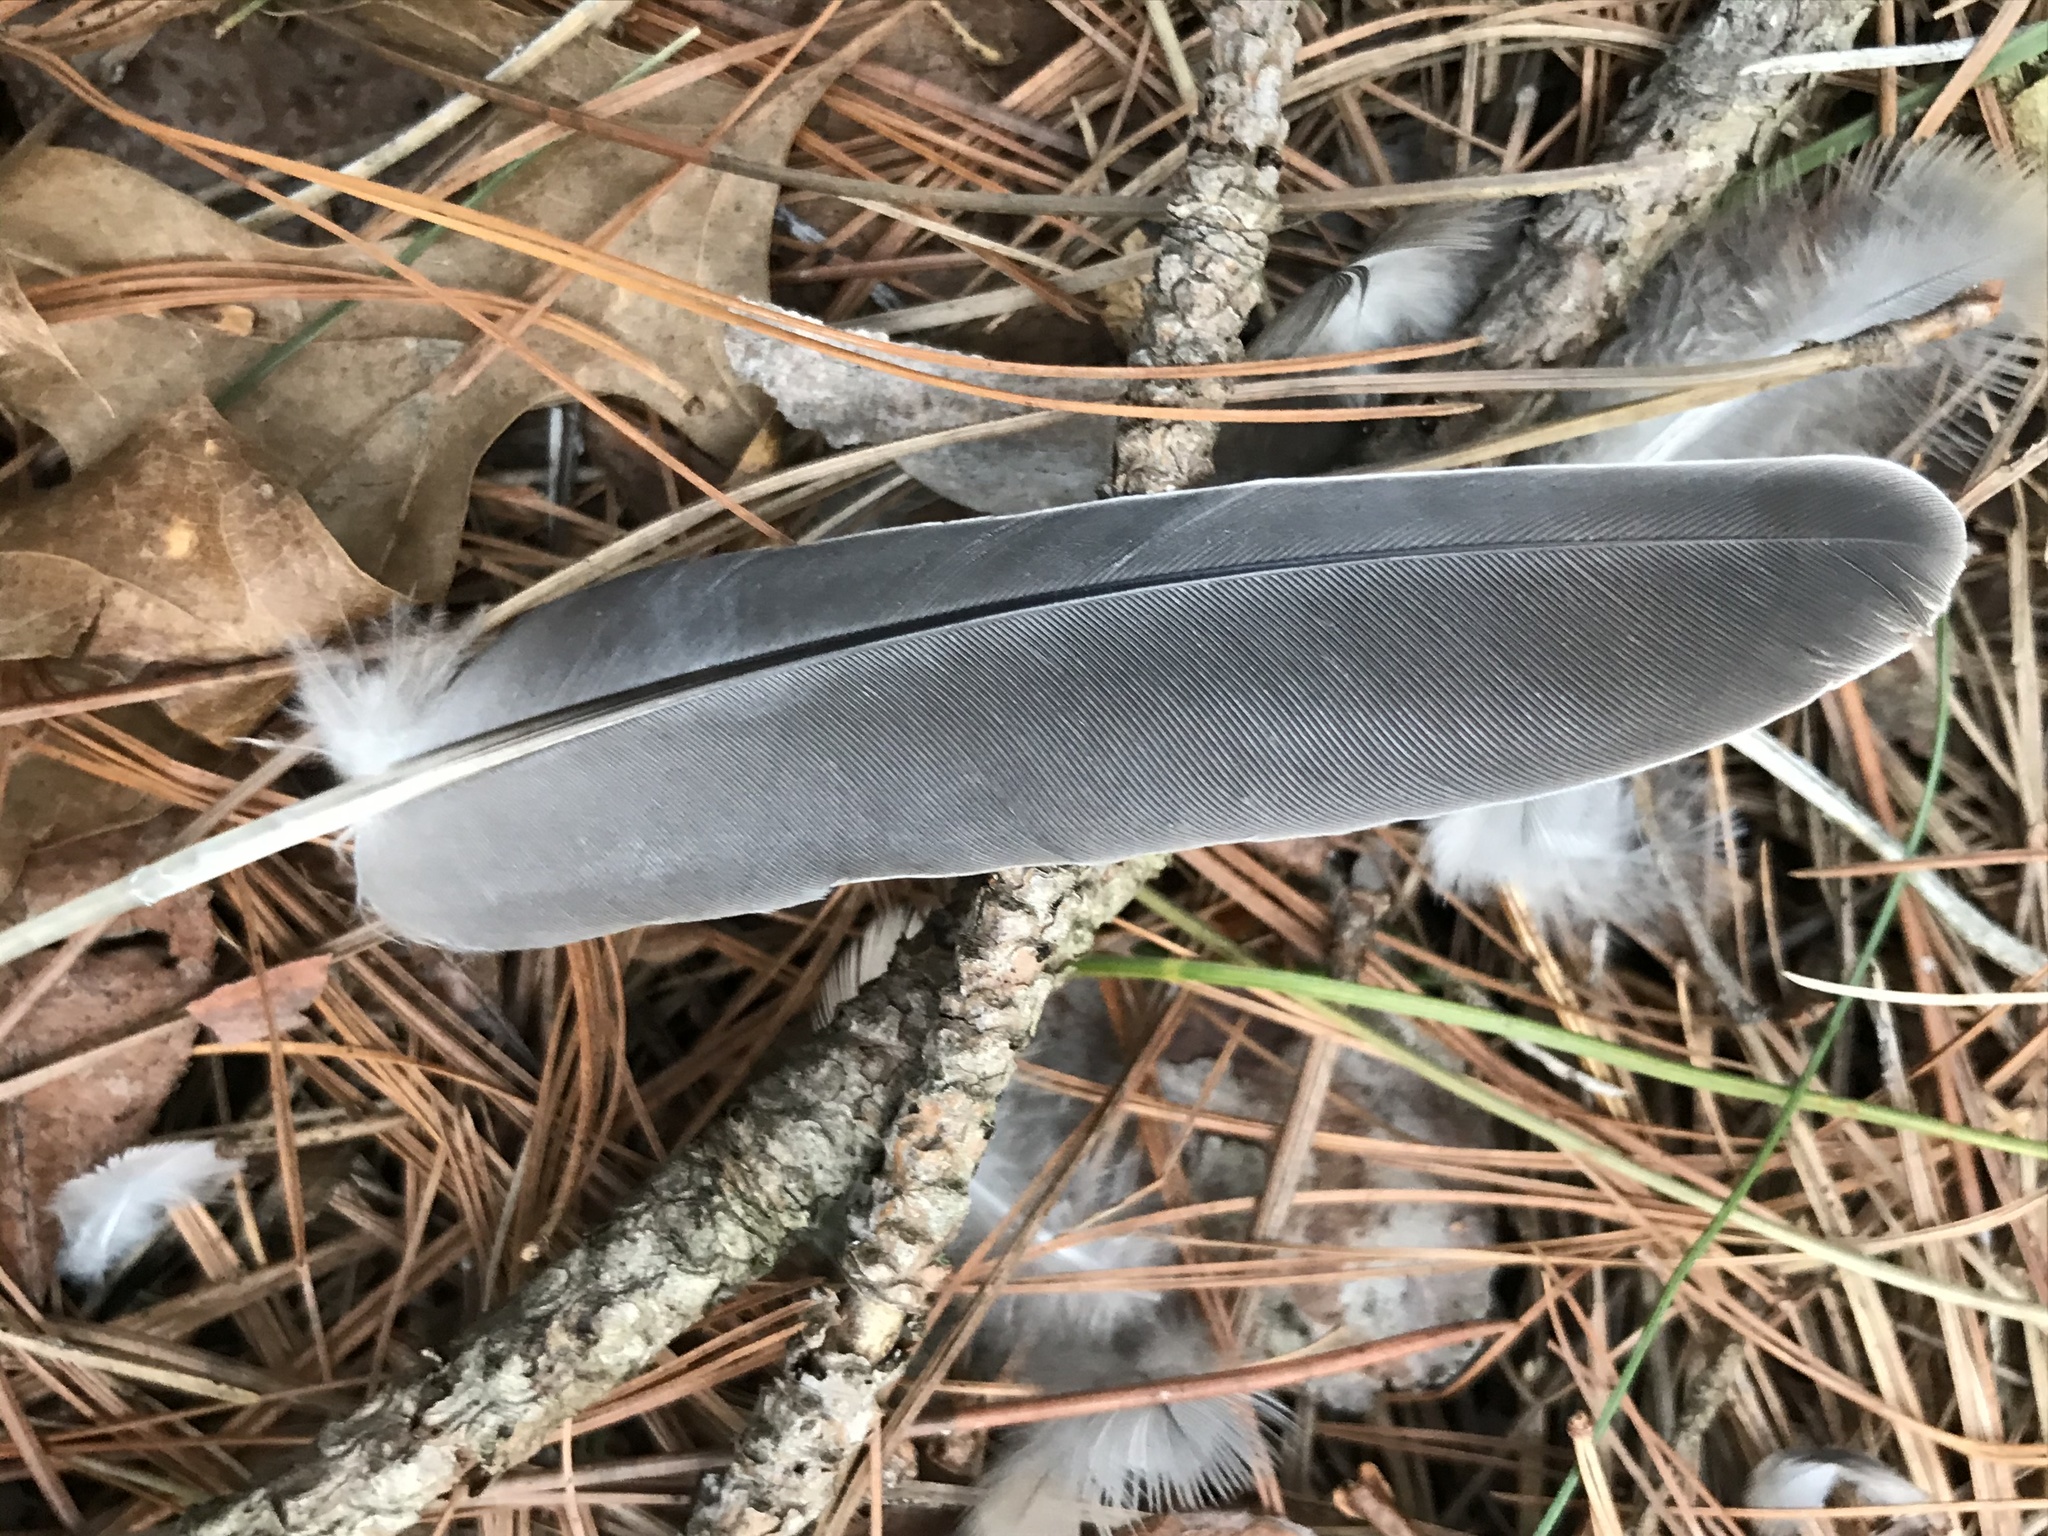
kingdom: Animalia
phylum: Chordata
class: Aves
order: Columbiformes
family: Columbidae
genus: Zenaida
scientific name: Zenaida macroura
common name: Mourning dove
